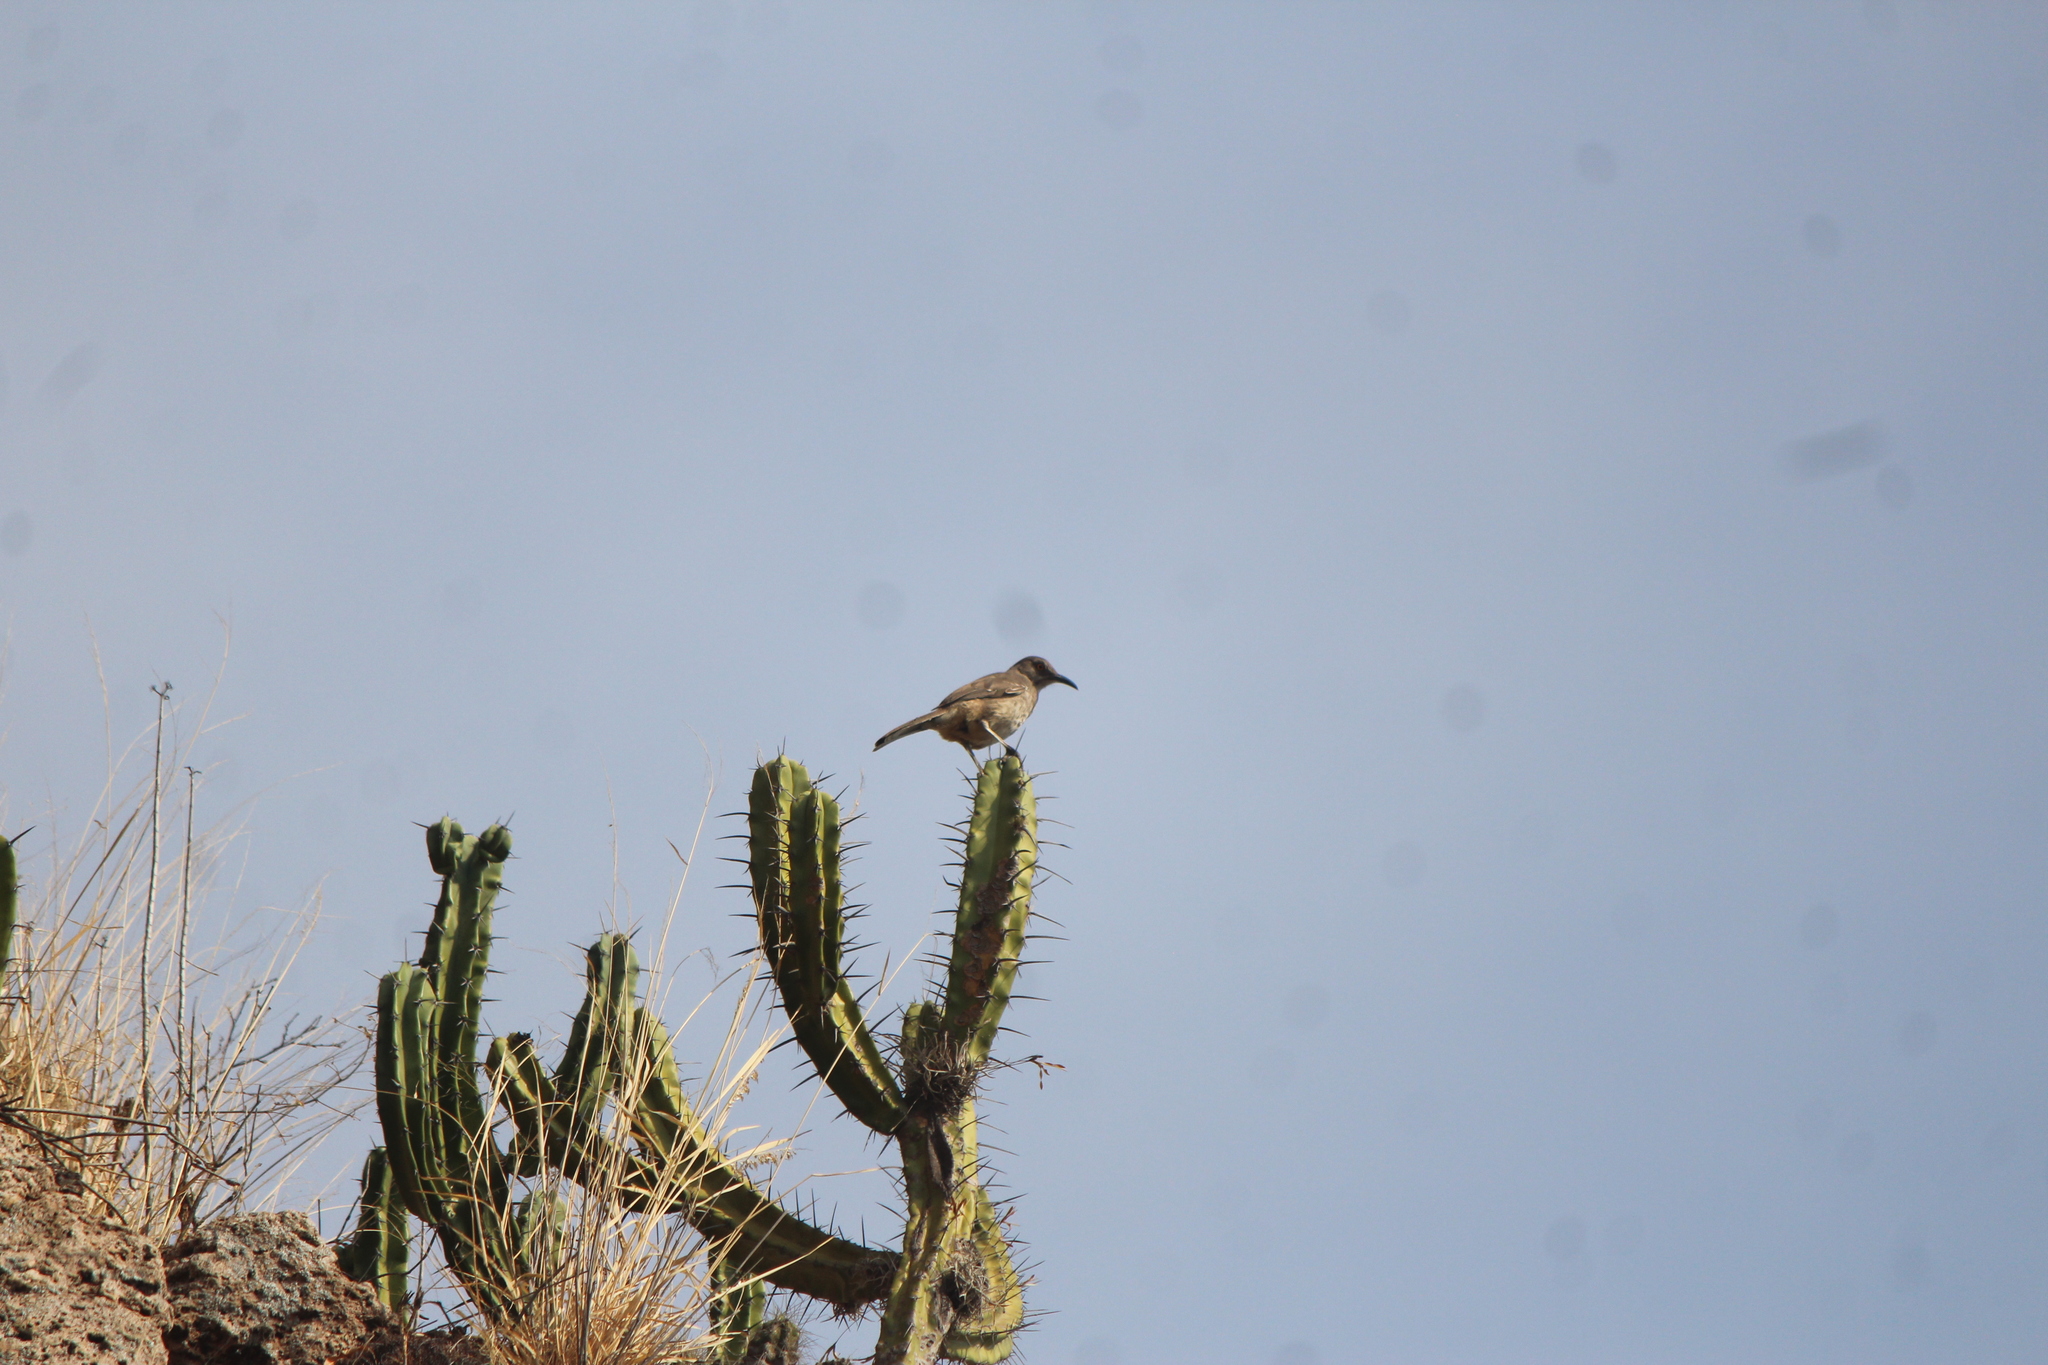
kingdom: Animalia
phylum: Chordata
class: Aves
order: Passeriformes
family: Mimidae
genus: Toxostoma
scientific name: Toxostoma curvirostre
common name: Curve-billed thrasher
